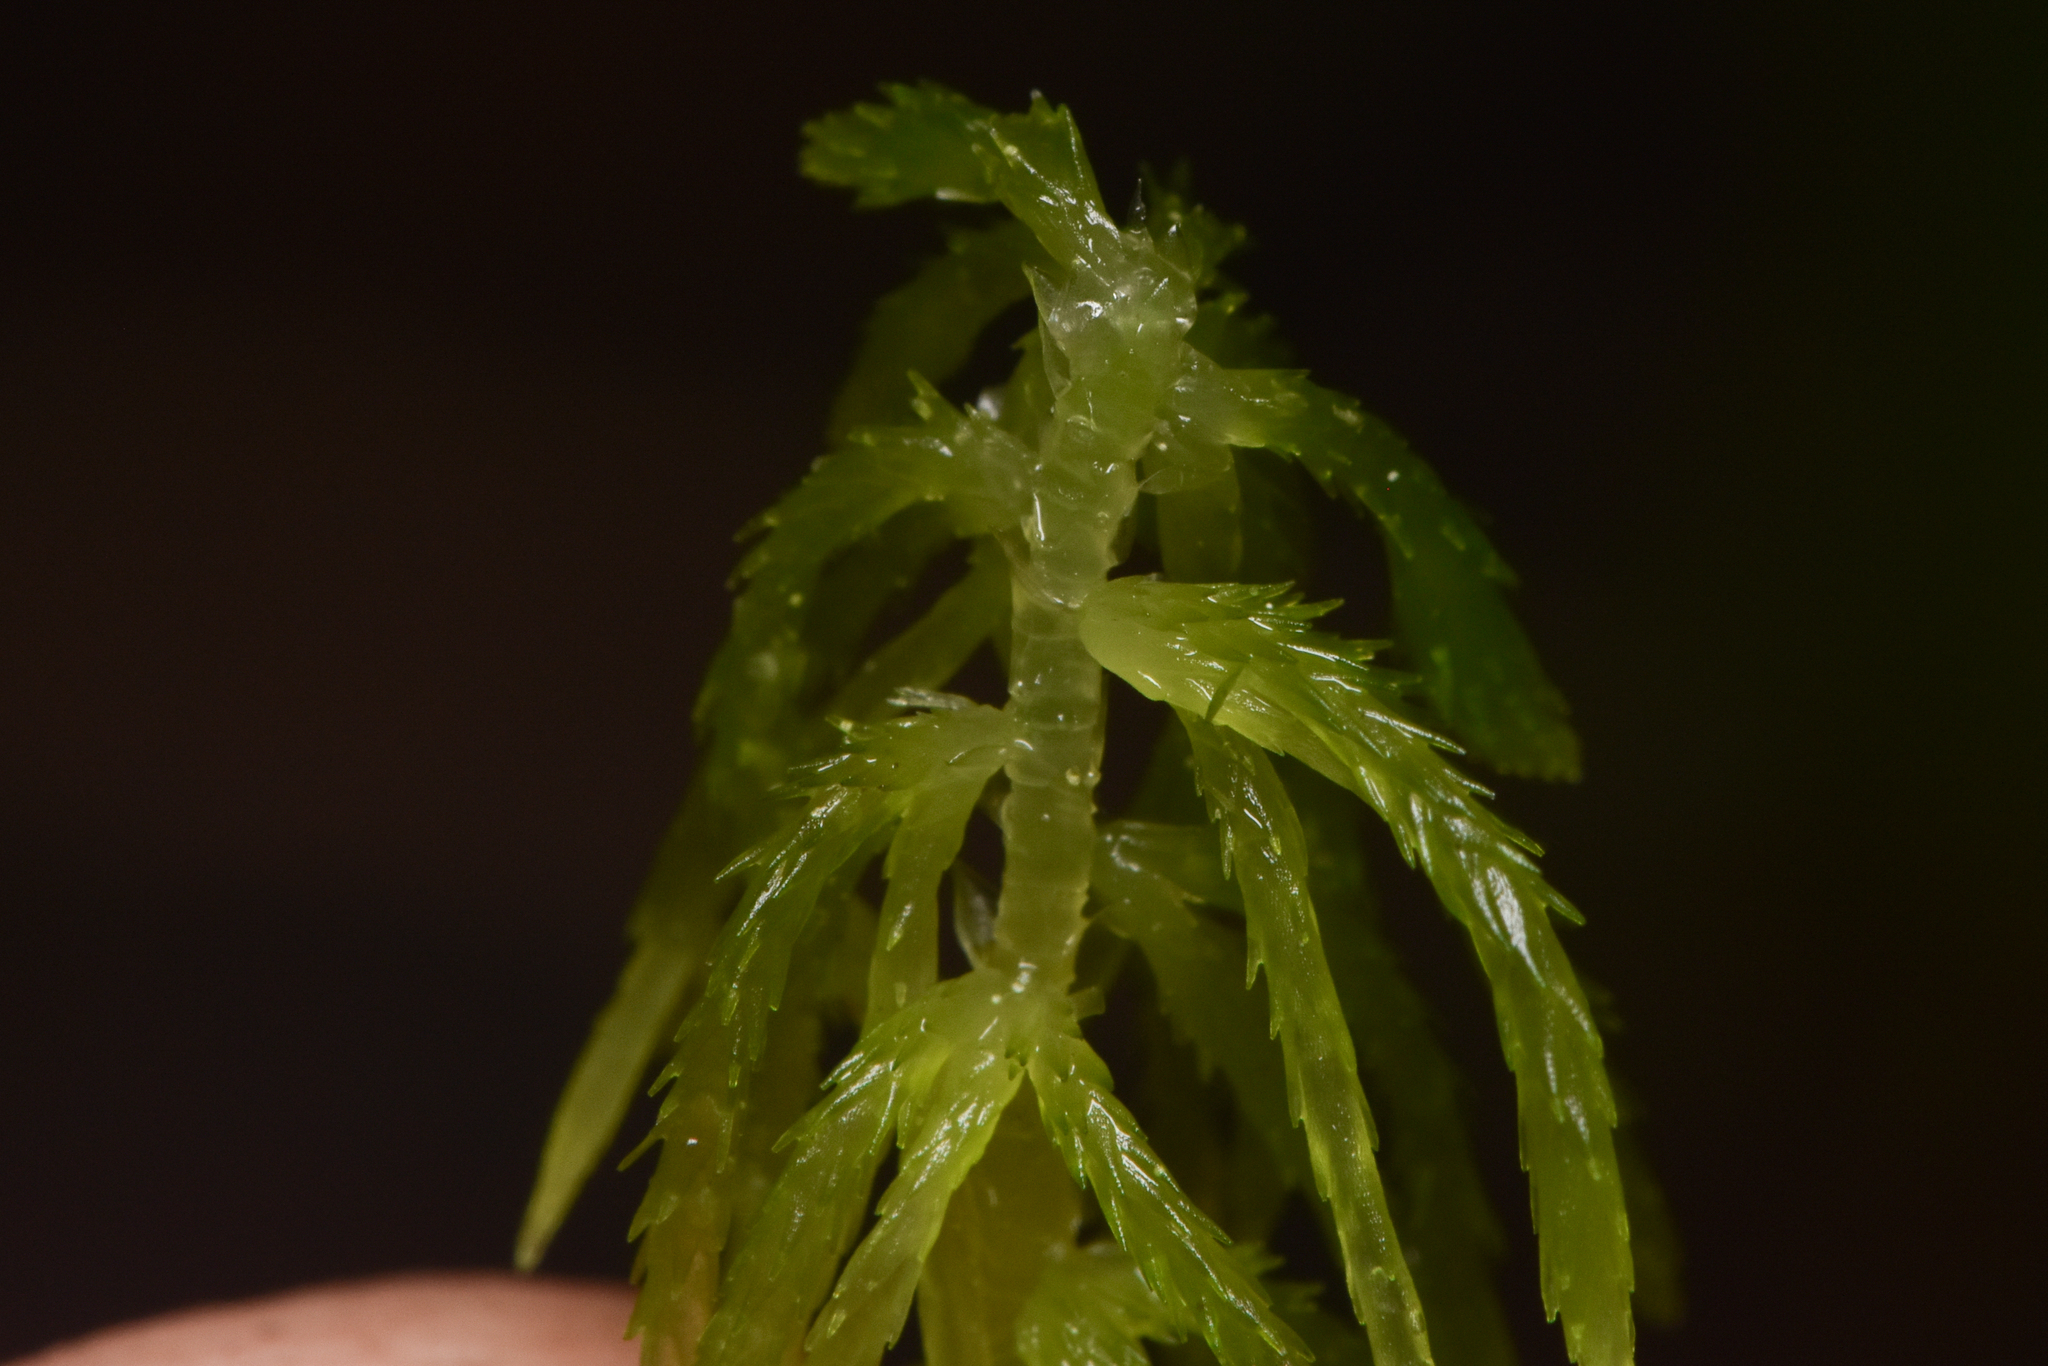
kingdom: Plantae
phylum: Bryophyta
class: Sphagnopsida
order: Sphagnales
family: Sphagnaceae
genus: Sphagnum
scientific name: Sphagnum rubiginosum
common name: Variegated peat moss
